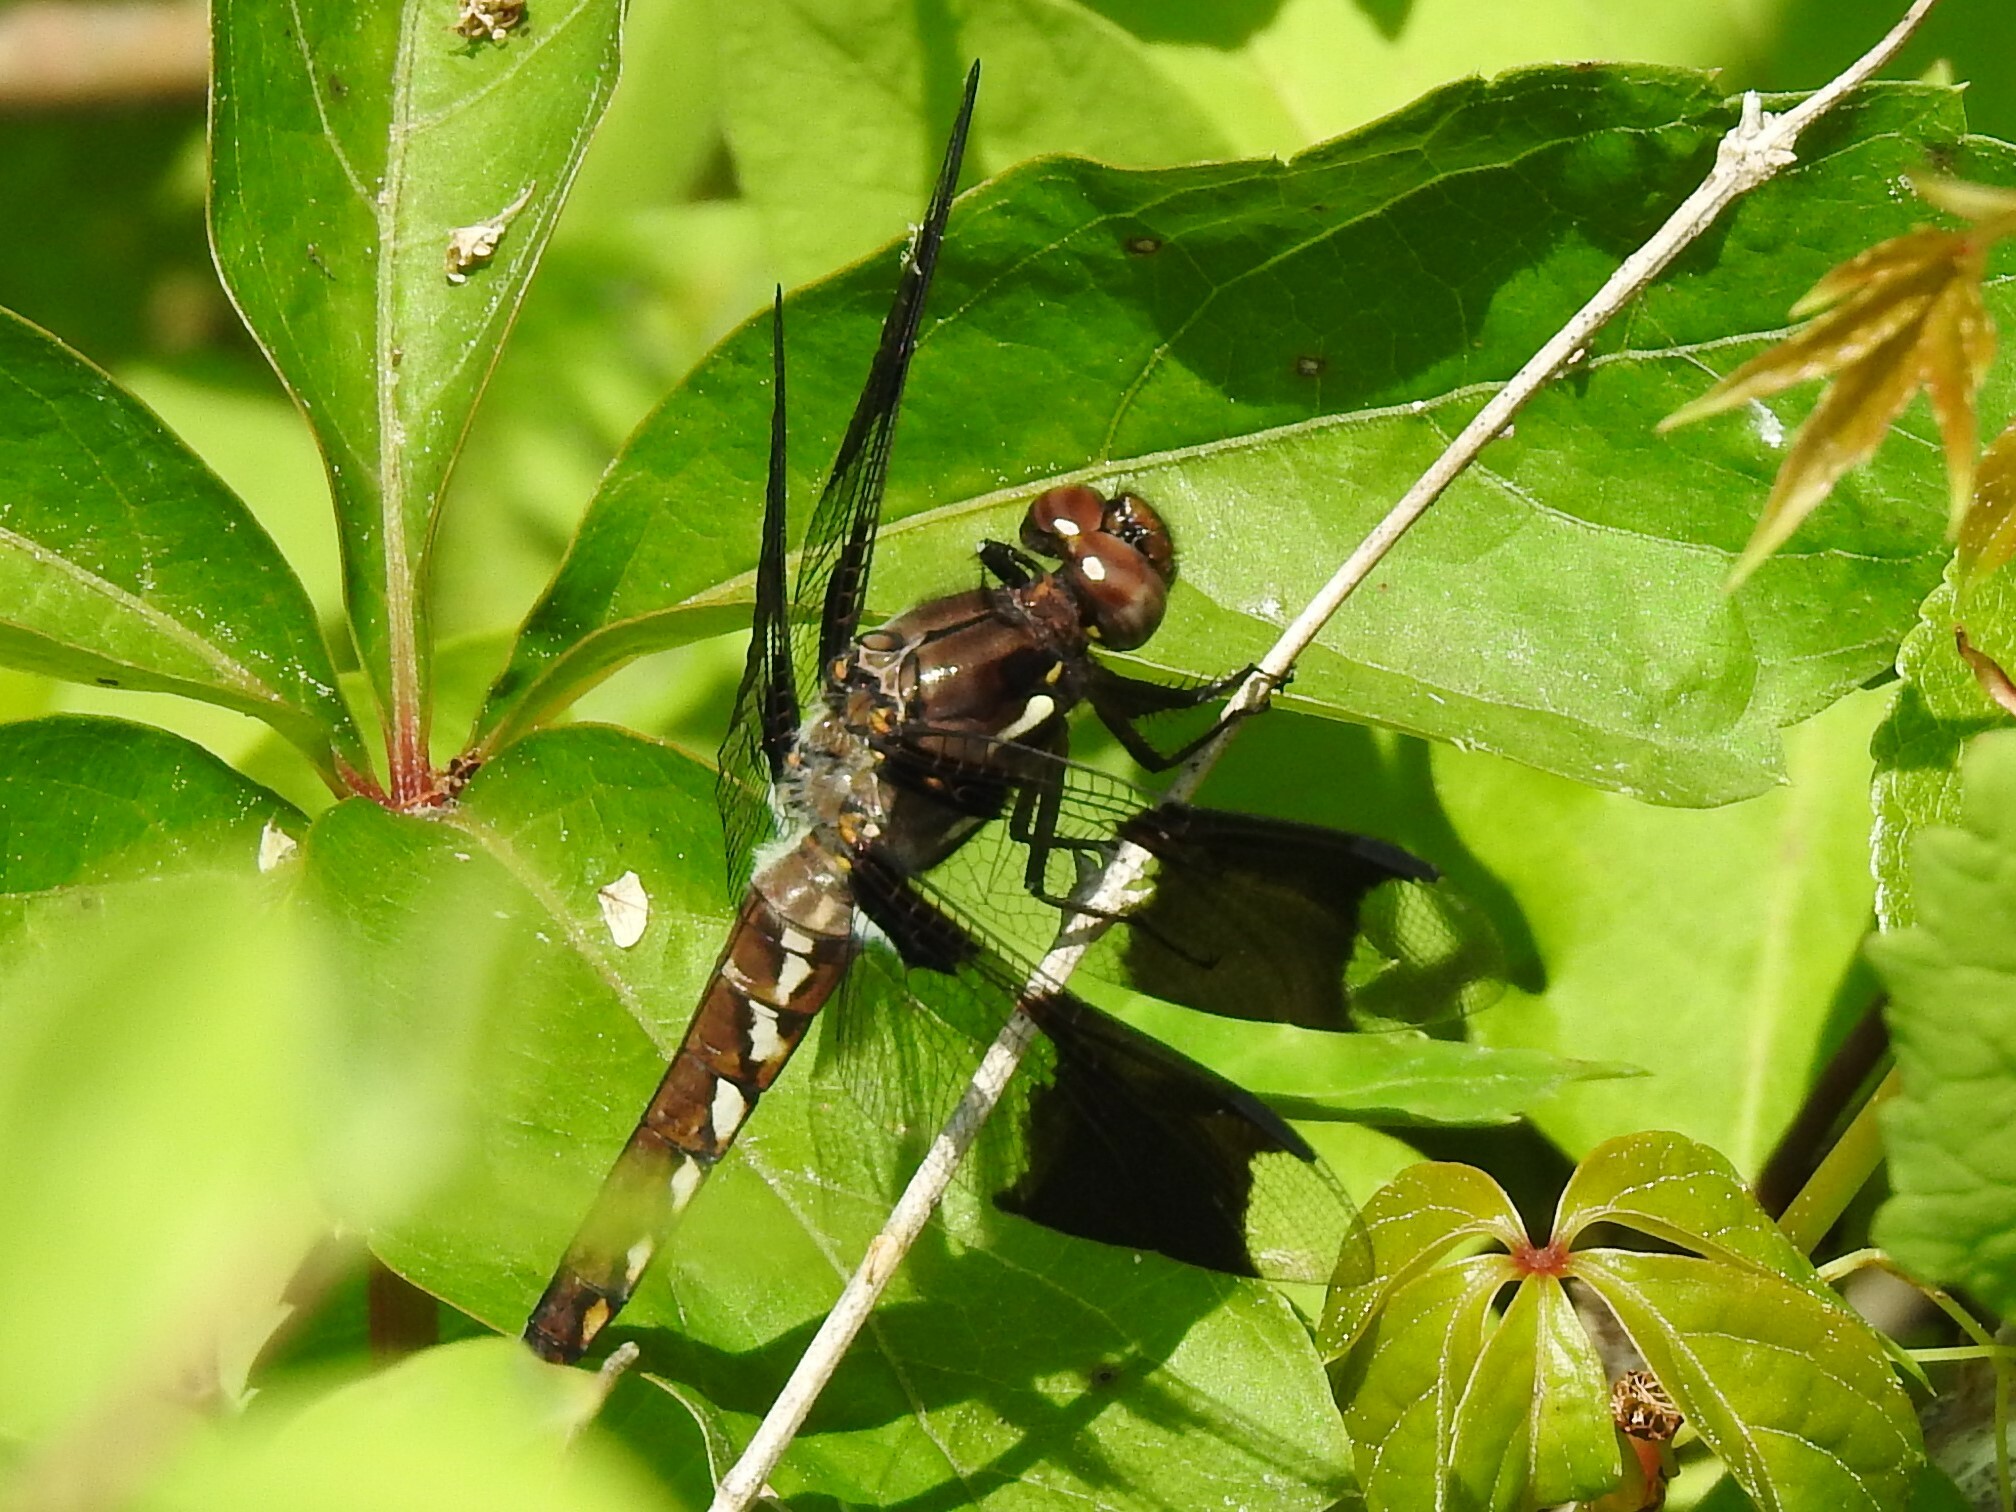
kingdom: Animalia
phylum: Arthropoda
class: Insecta
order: Odonata
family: Libellulidae
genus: Plathemis
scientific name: Plathemis lydia
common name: Common whitetail
